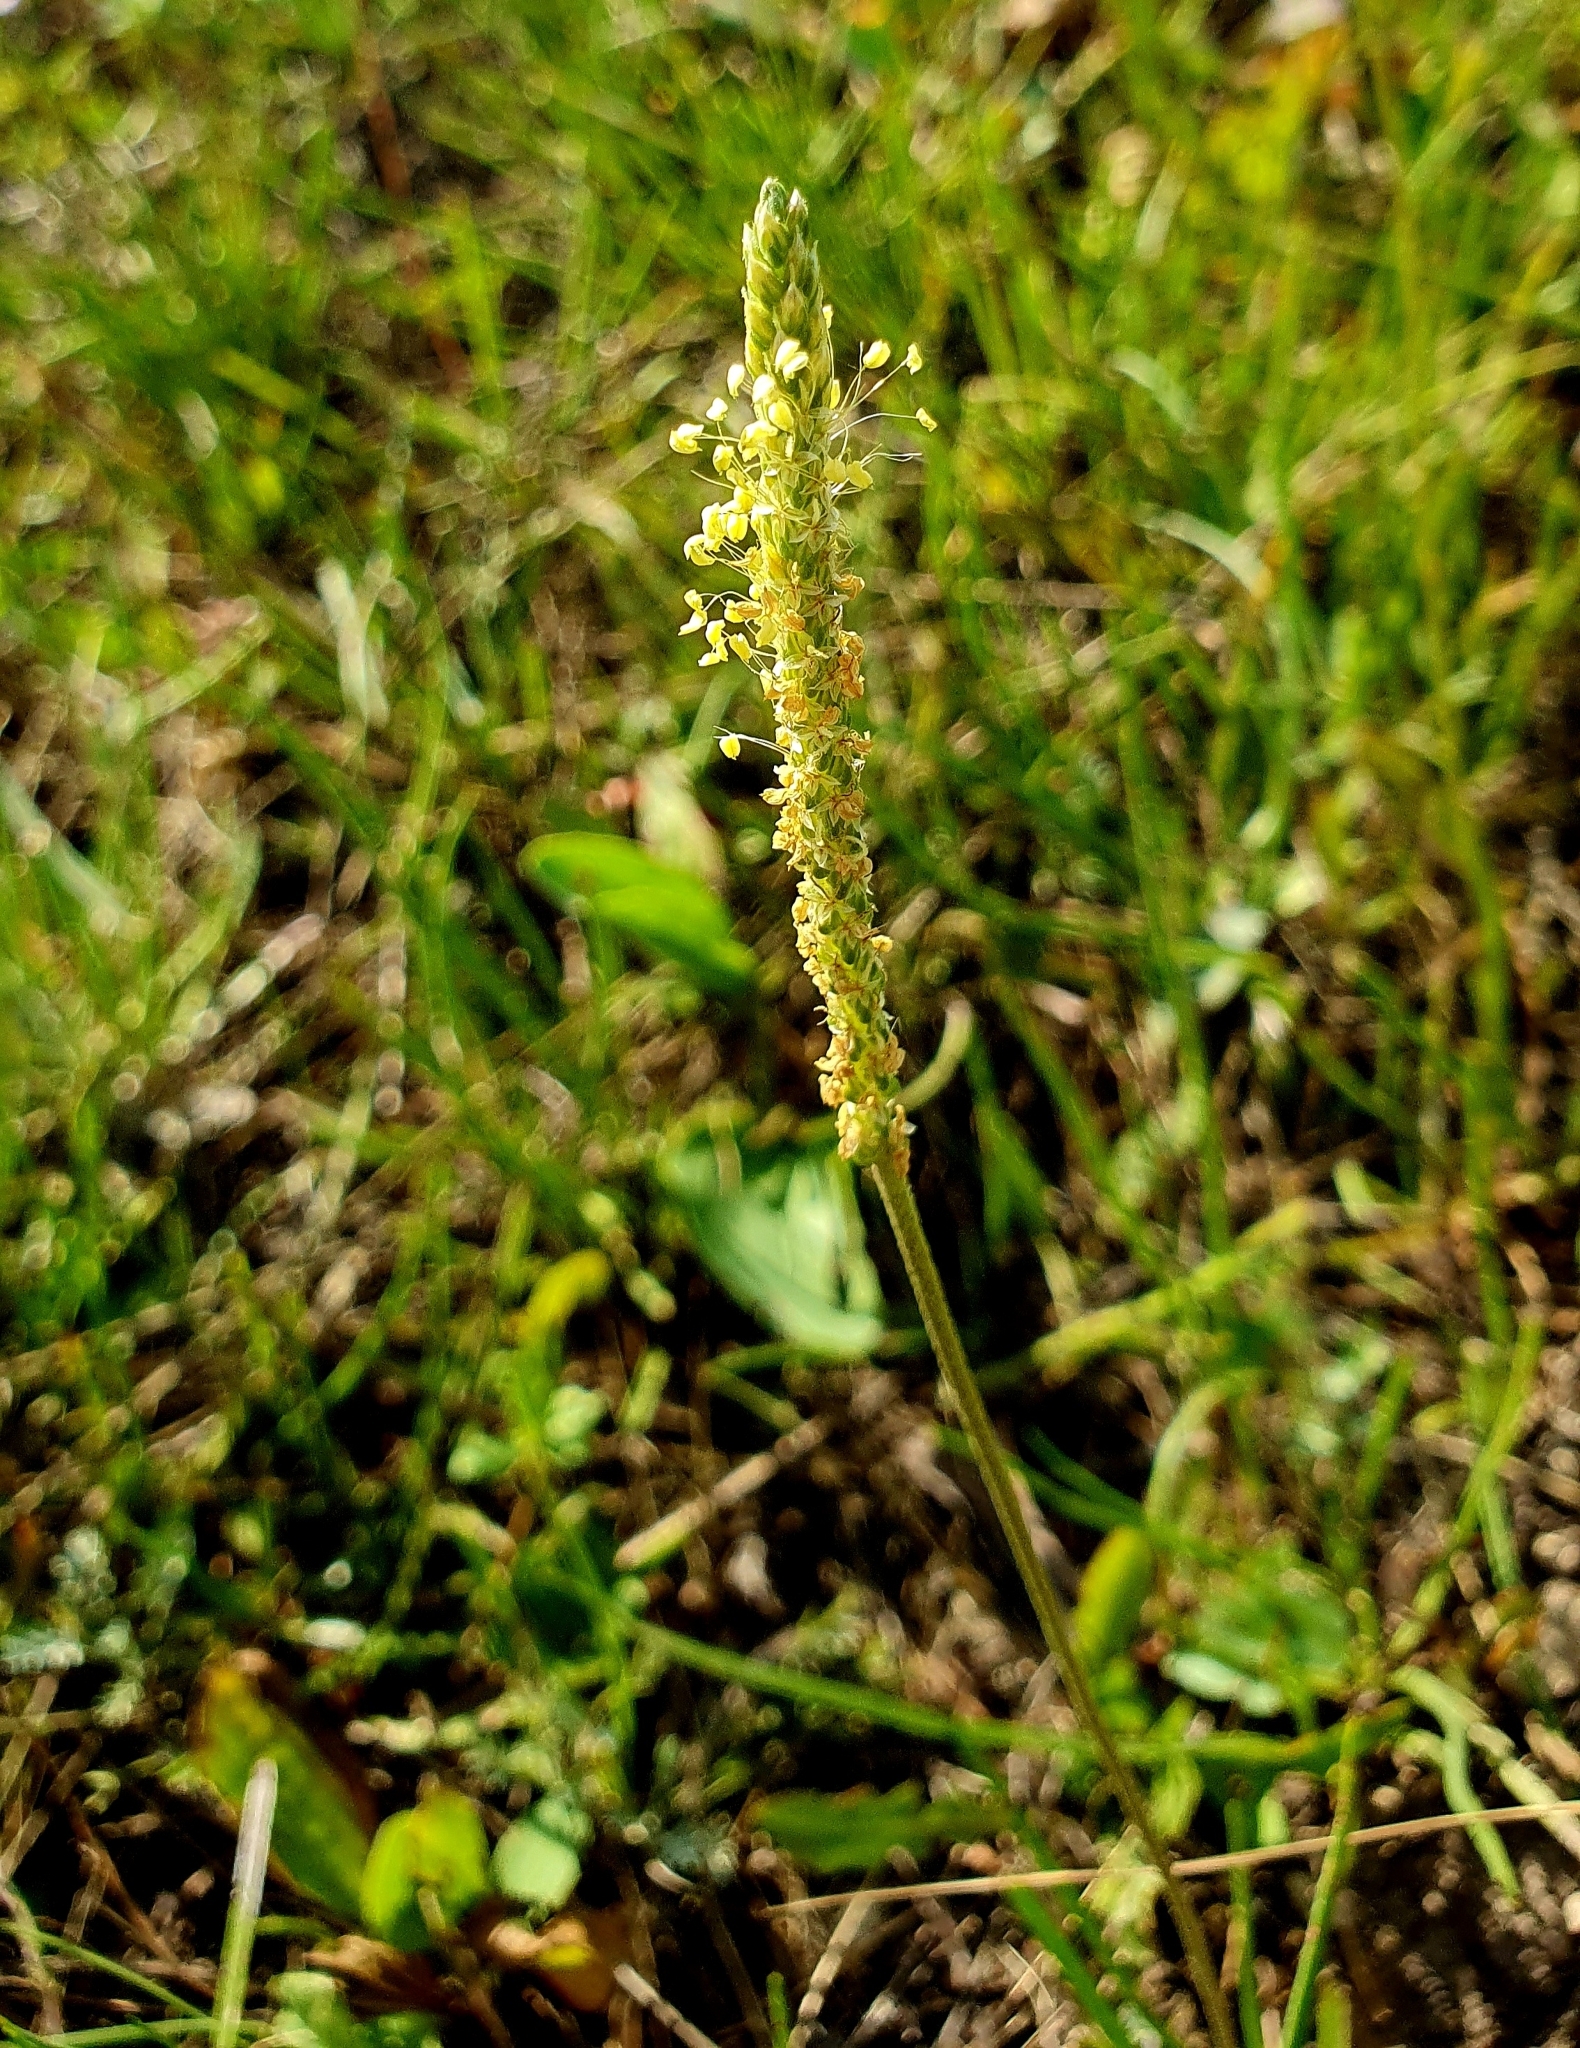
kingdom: Plantae
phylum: Tracheophyta
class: Magnoliopsida
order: Lamiales
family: Plantaginaceae
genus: Plantago
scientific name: Plantago salsa
